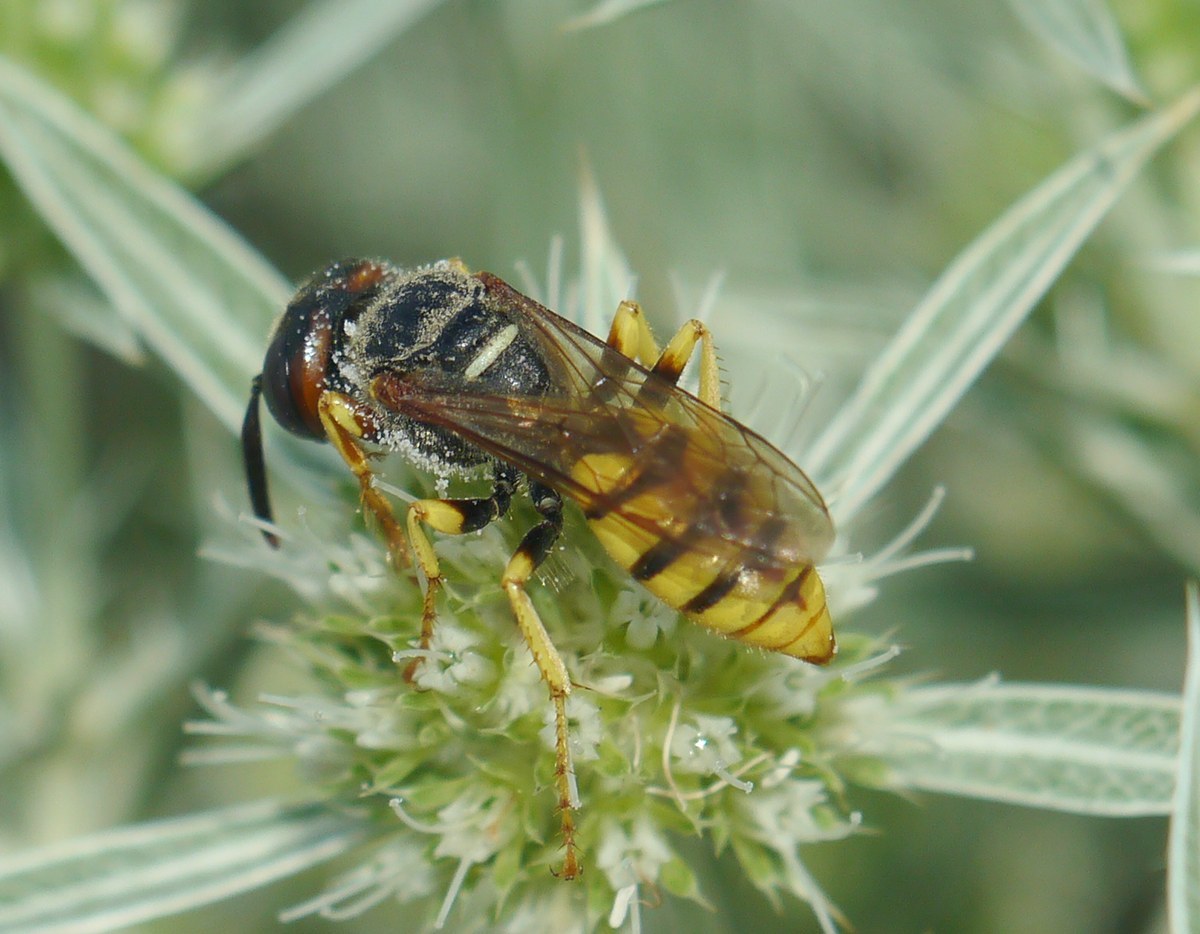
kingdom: Animalia
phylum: Arthropoda
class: Insecta
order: Hymenoptera
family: Crabronidae
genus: Philanthus
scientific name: Philanthus triangulum
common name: Bee wolf
